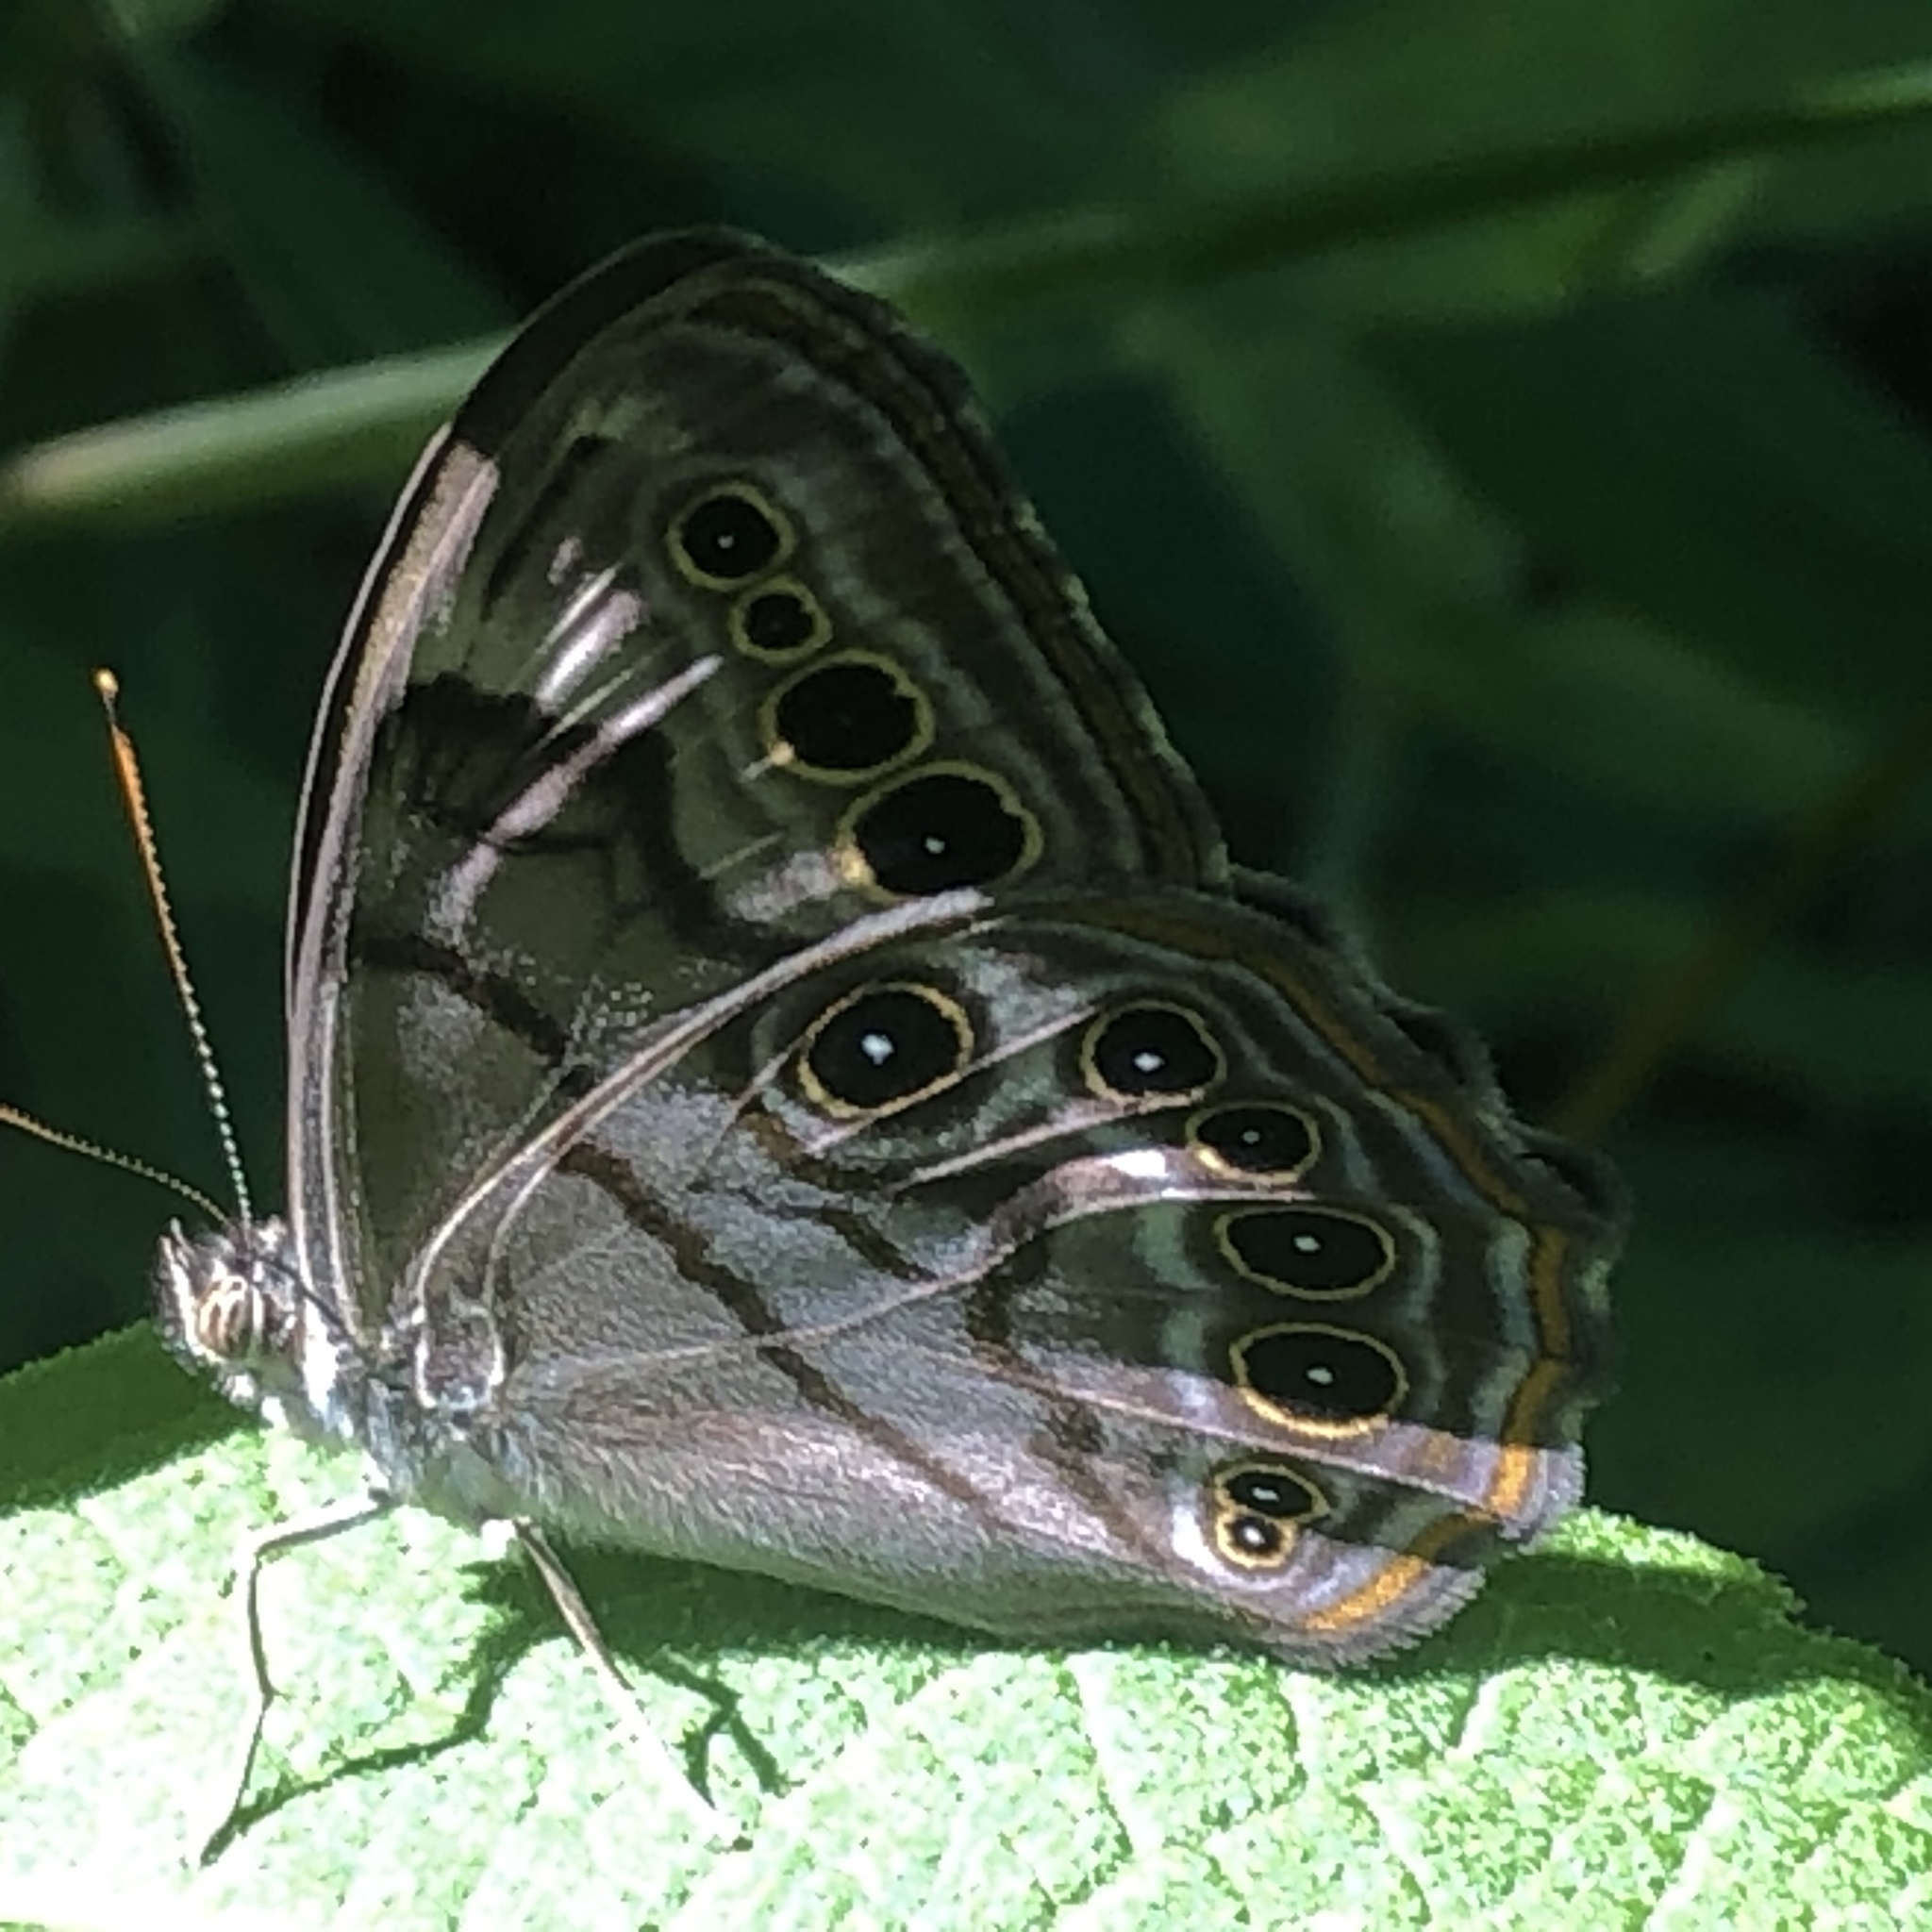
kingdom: Animalia
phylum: Arthropoda
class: Insecta
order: Lepidoptera
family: Nymphalidae
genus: Lethe
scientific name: Lethe anthedon
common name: Northern pearly-eye
